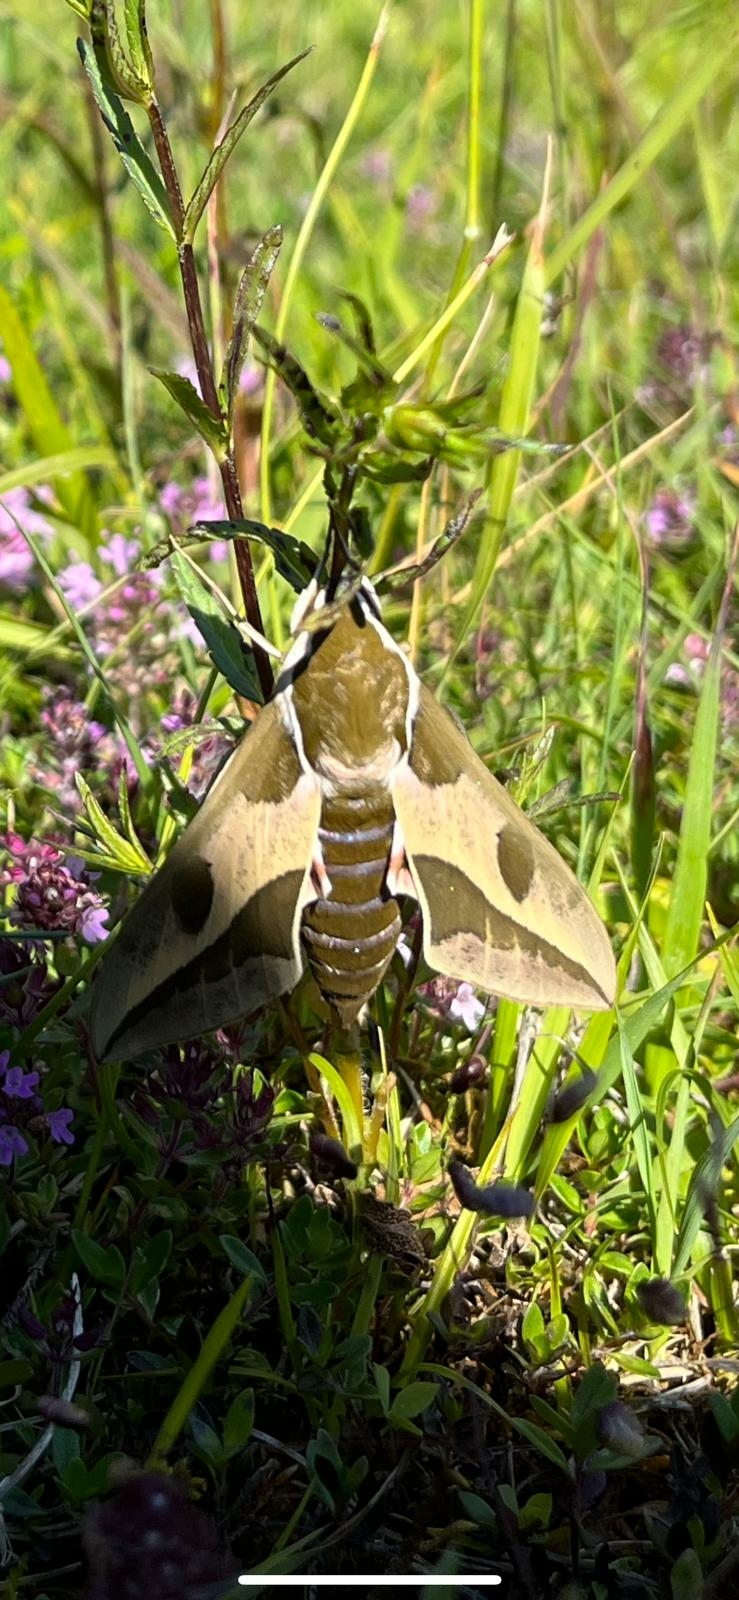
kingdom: Animalia
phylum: Arthropoda
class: Insecta
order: Lepidoptera
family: Sphingidae
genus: Hyles
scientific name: Hyles euphorbiae
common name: Spurge hawk-moth
